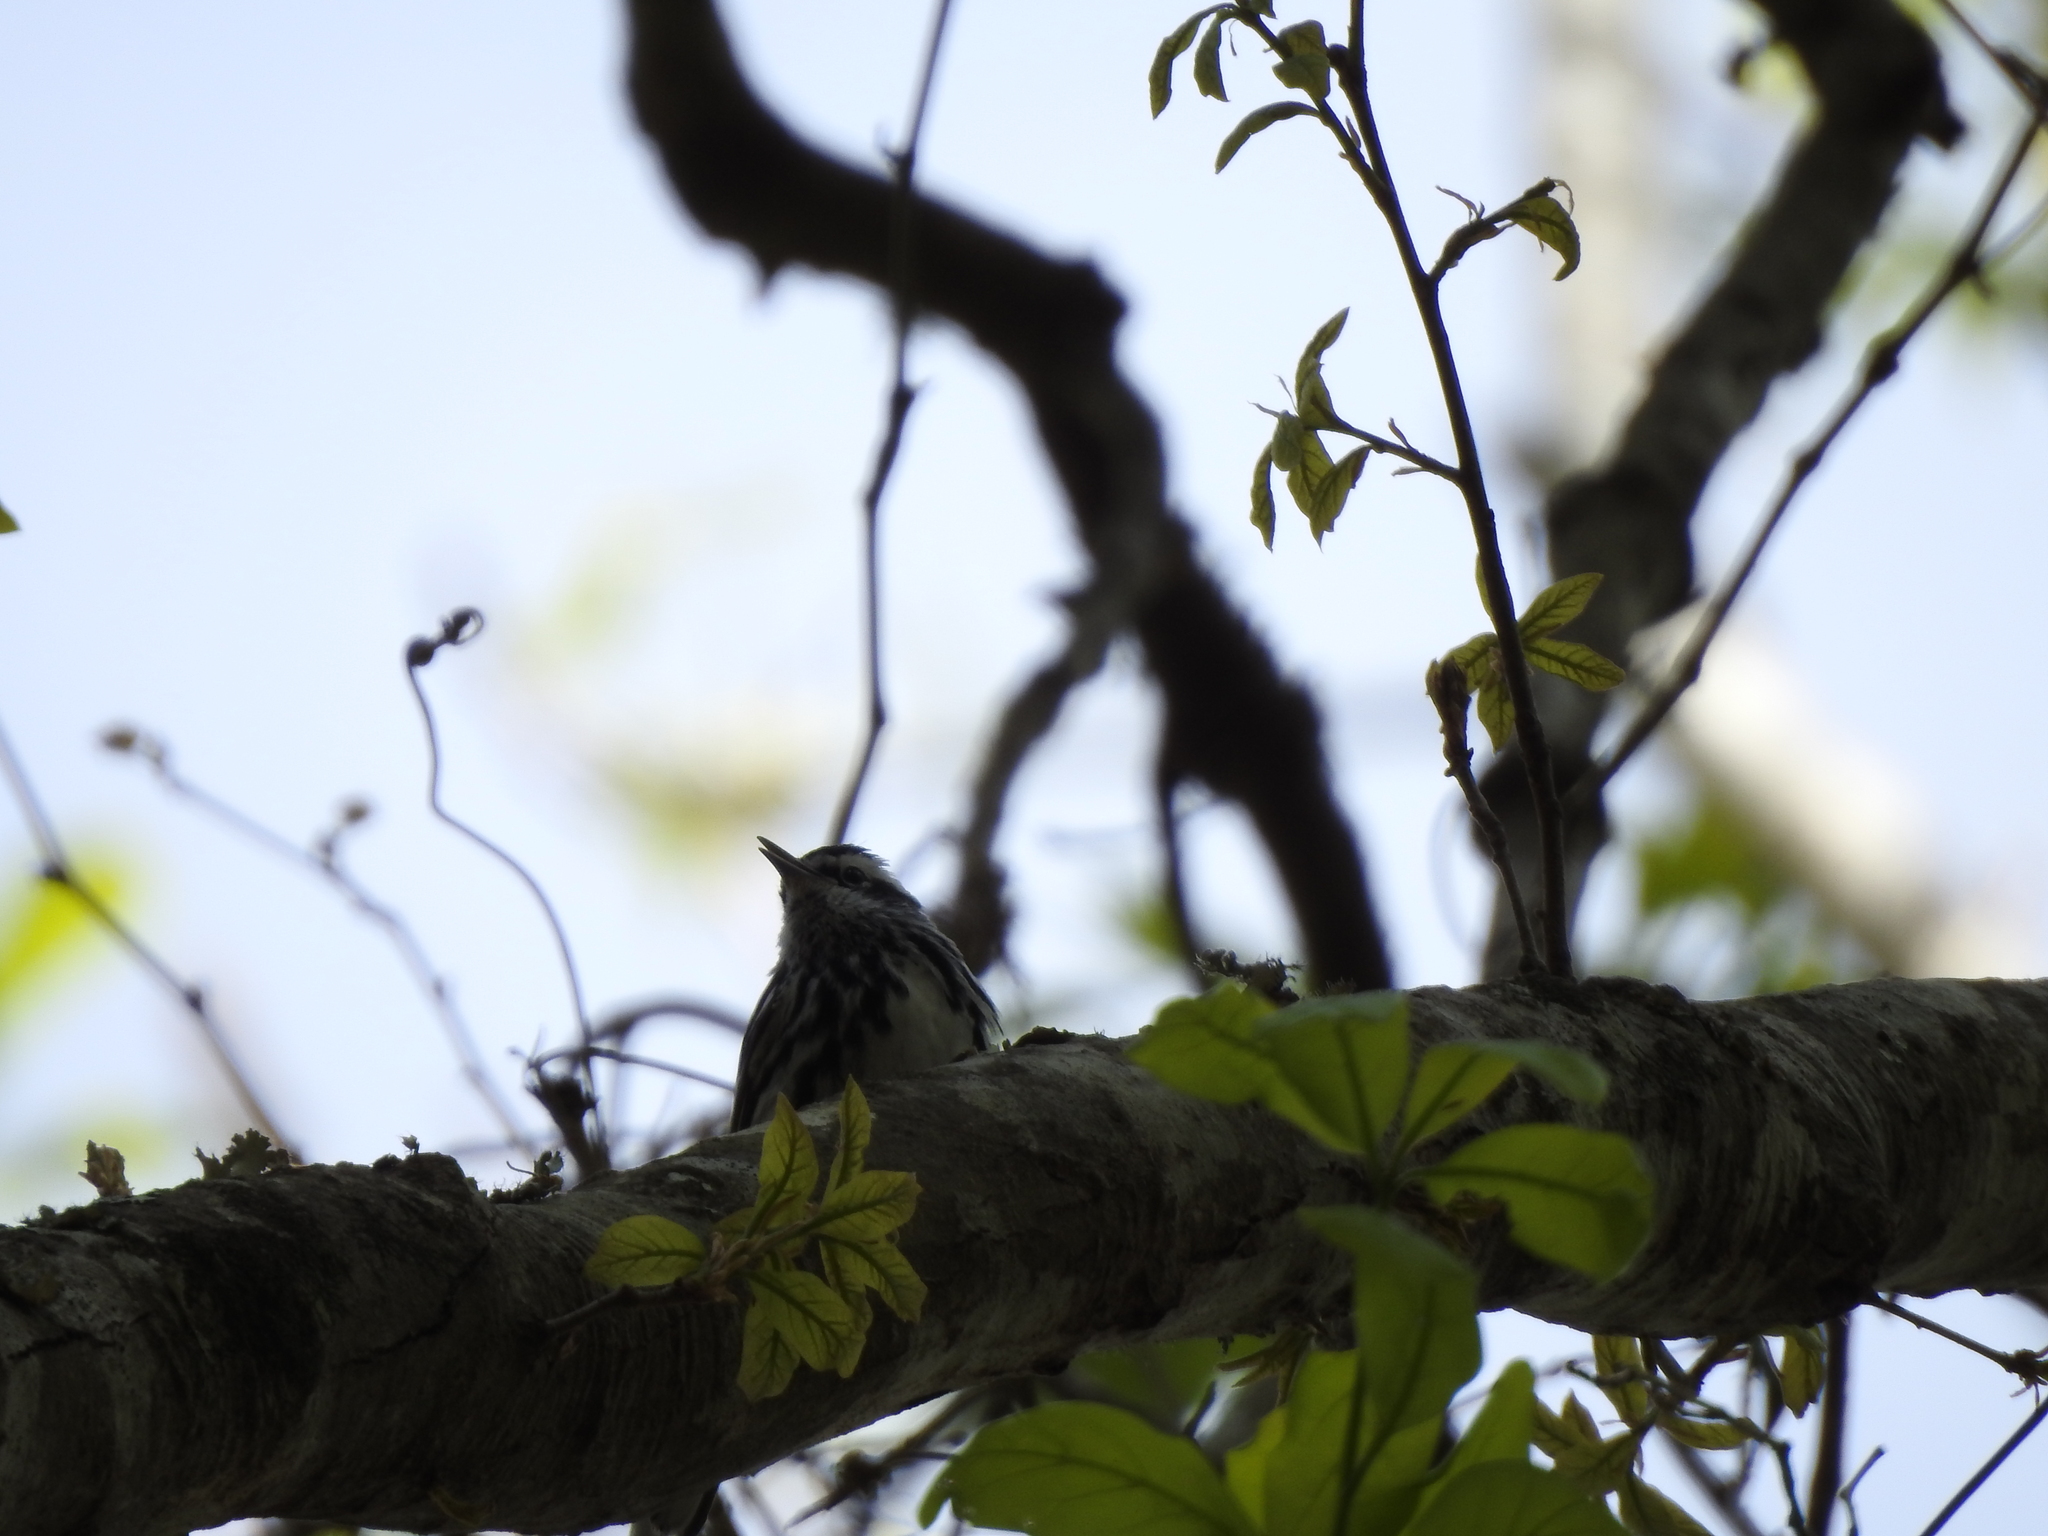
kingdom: Animalia
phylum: Chordata
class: Aves
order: Passeriformes
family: Parulidae
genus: Mniotilta
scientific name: Mniotilta varia
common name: Black-and-white warbler
